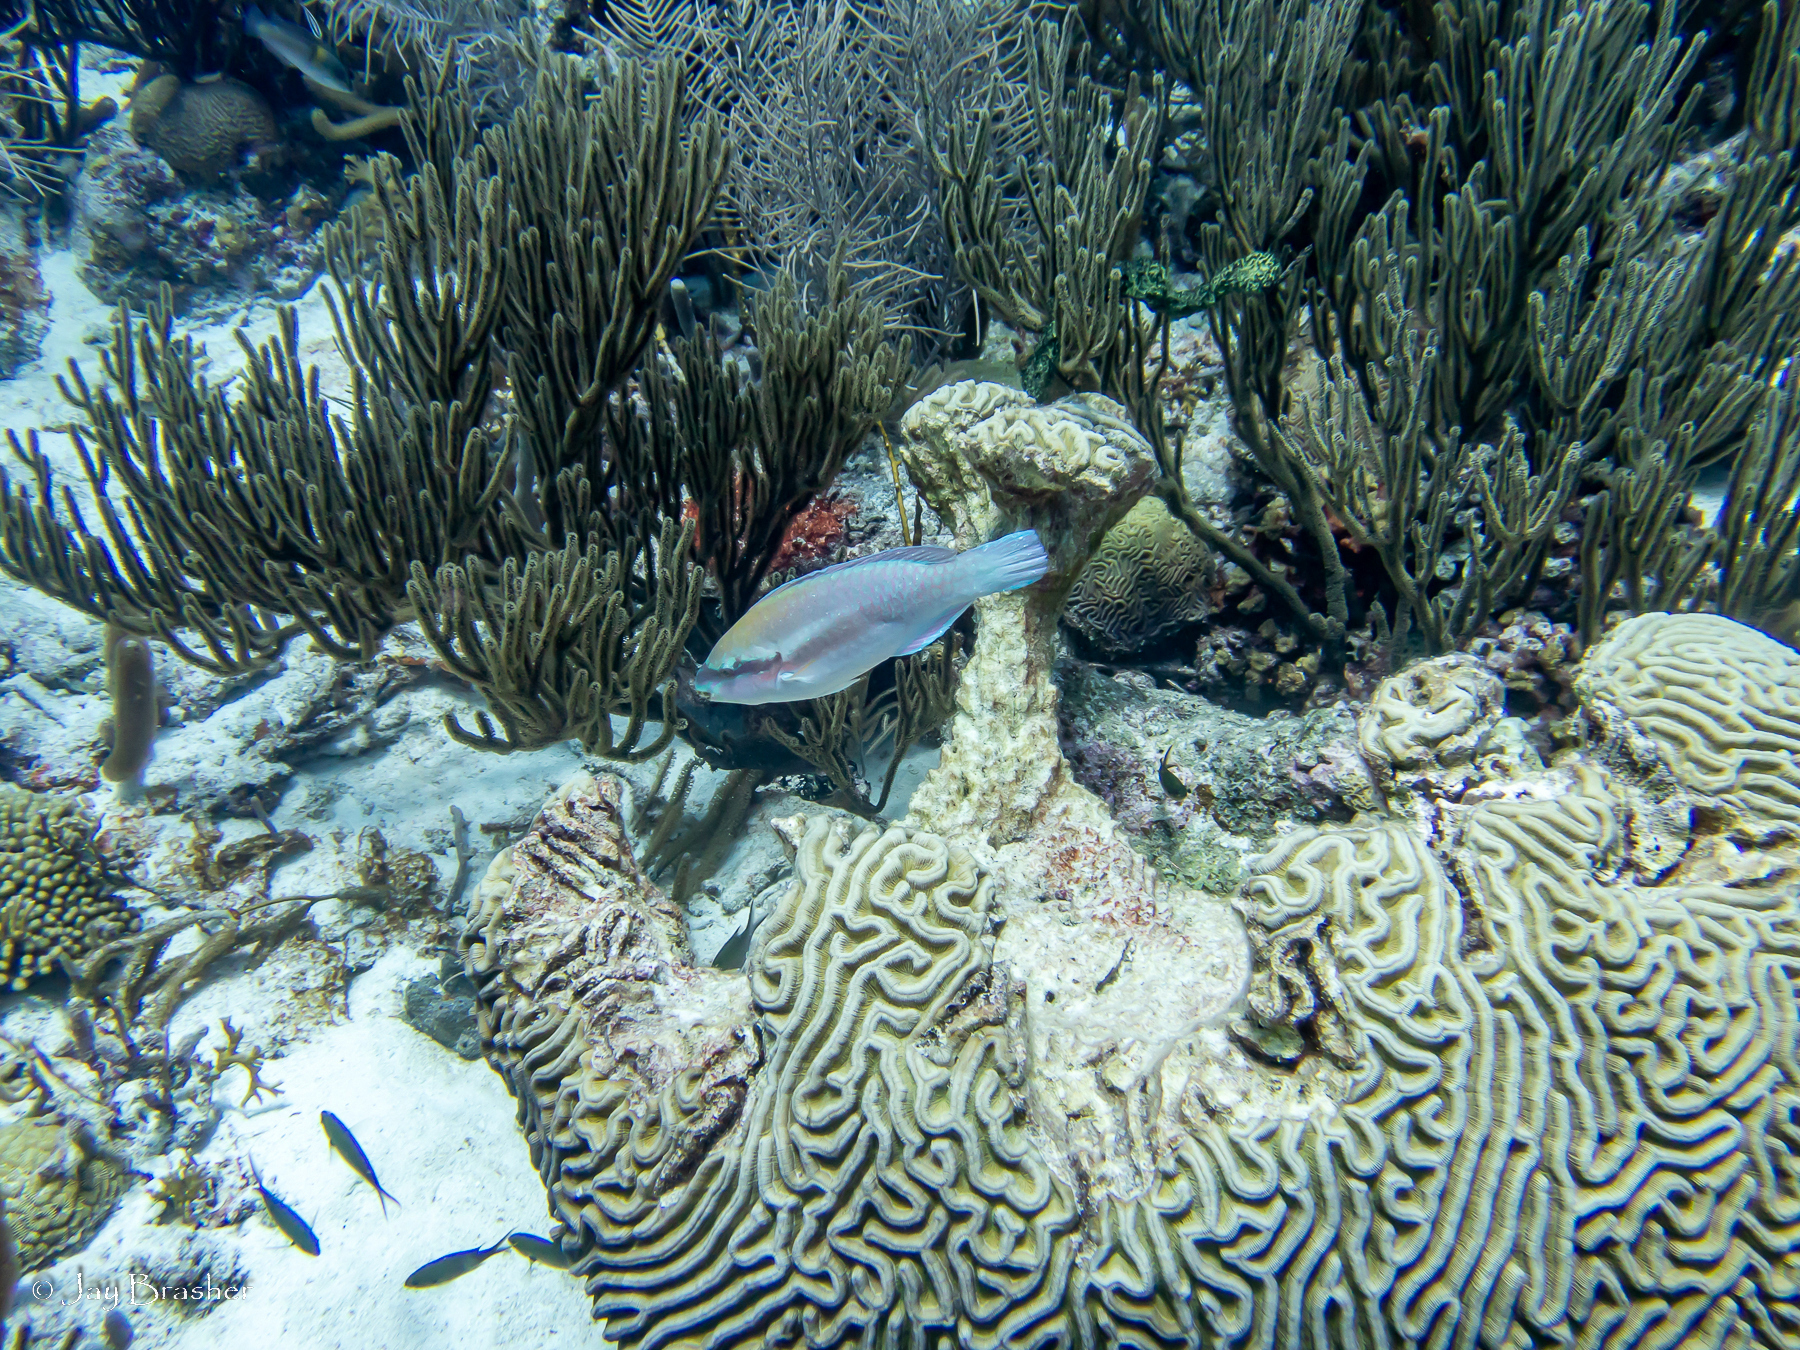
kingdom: Animalia
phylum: Cnidaria
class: Anthozoa
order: Scleractinia
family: Faviidae
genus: Colpophyllia
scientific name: Colpophyllia natans
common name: Boulder brain coral
